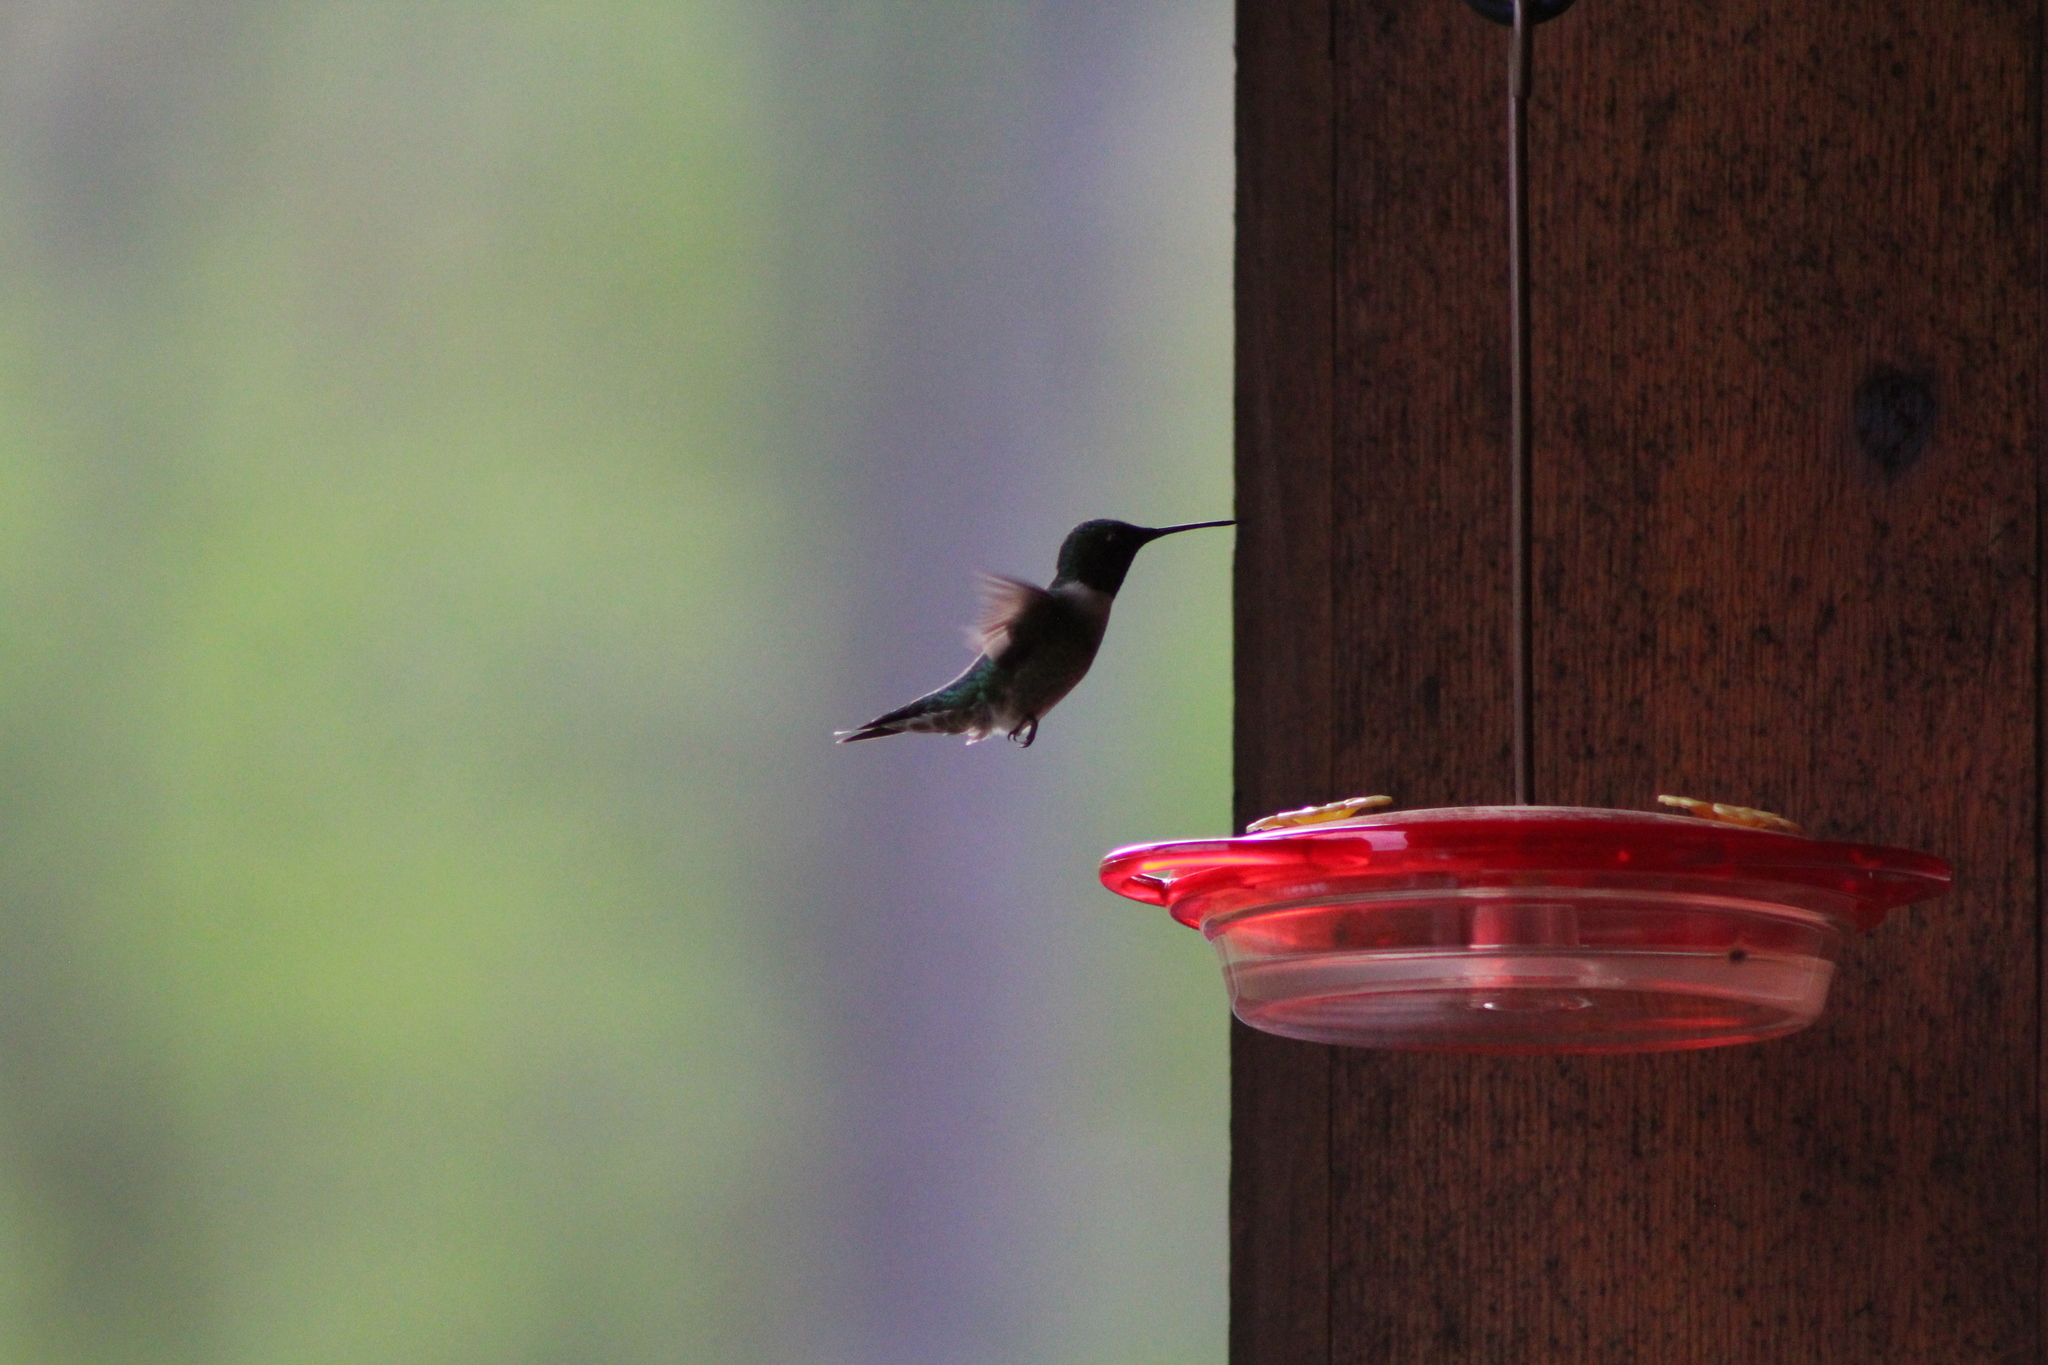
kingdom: Animalia
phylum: Chordata
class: Aves
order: Apodiformes
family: Trochilidae
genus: Archilochus
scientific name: Archilochus colubris
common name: Ruby-throated hummingbird
